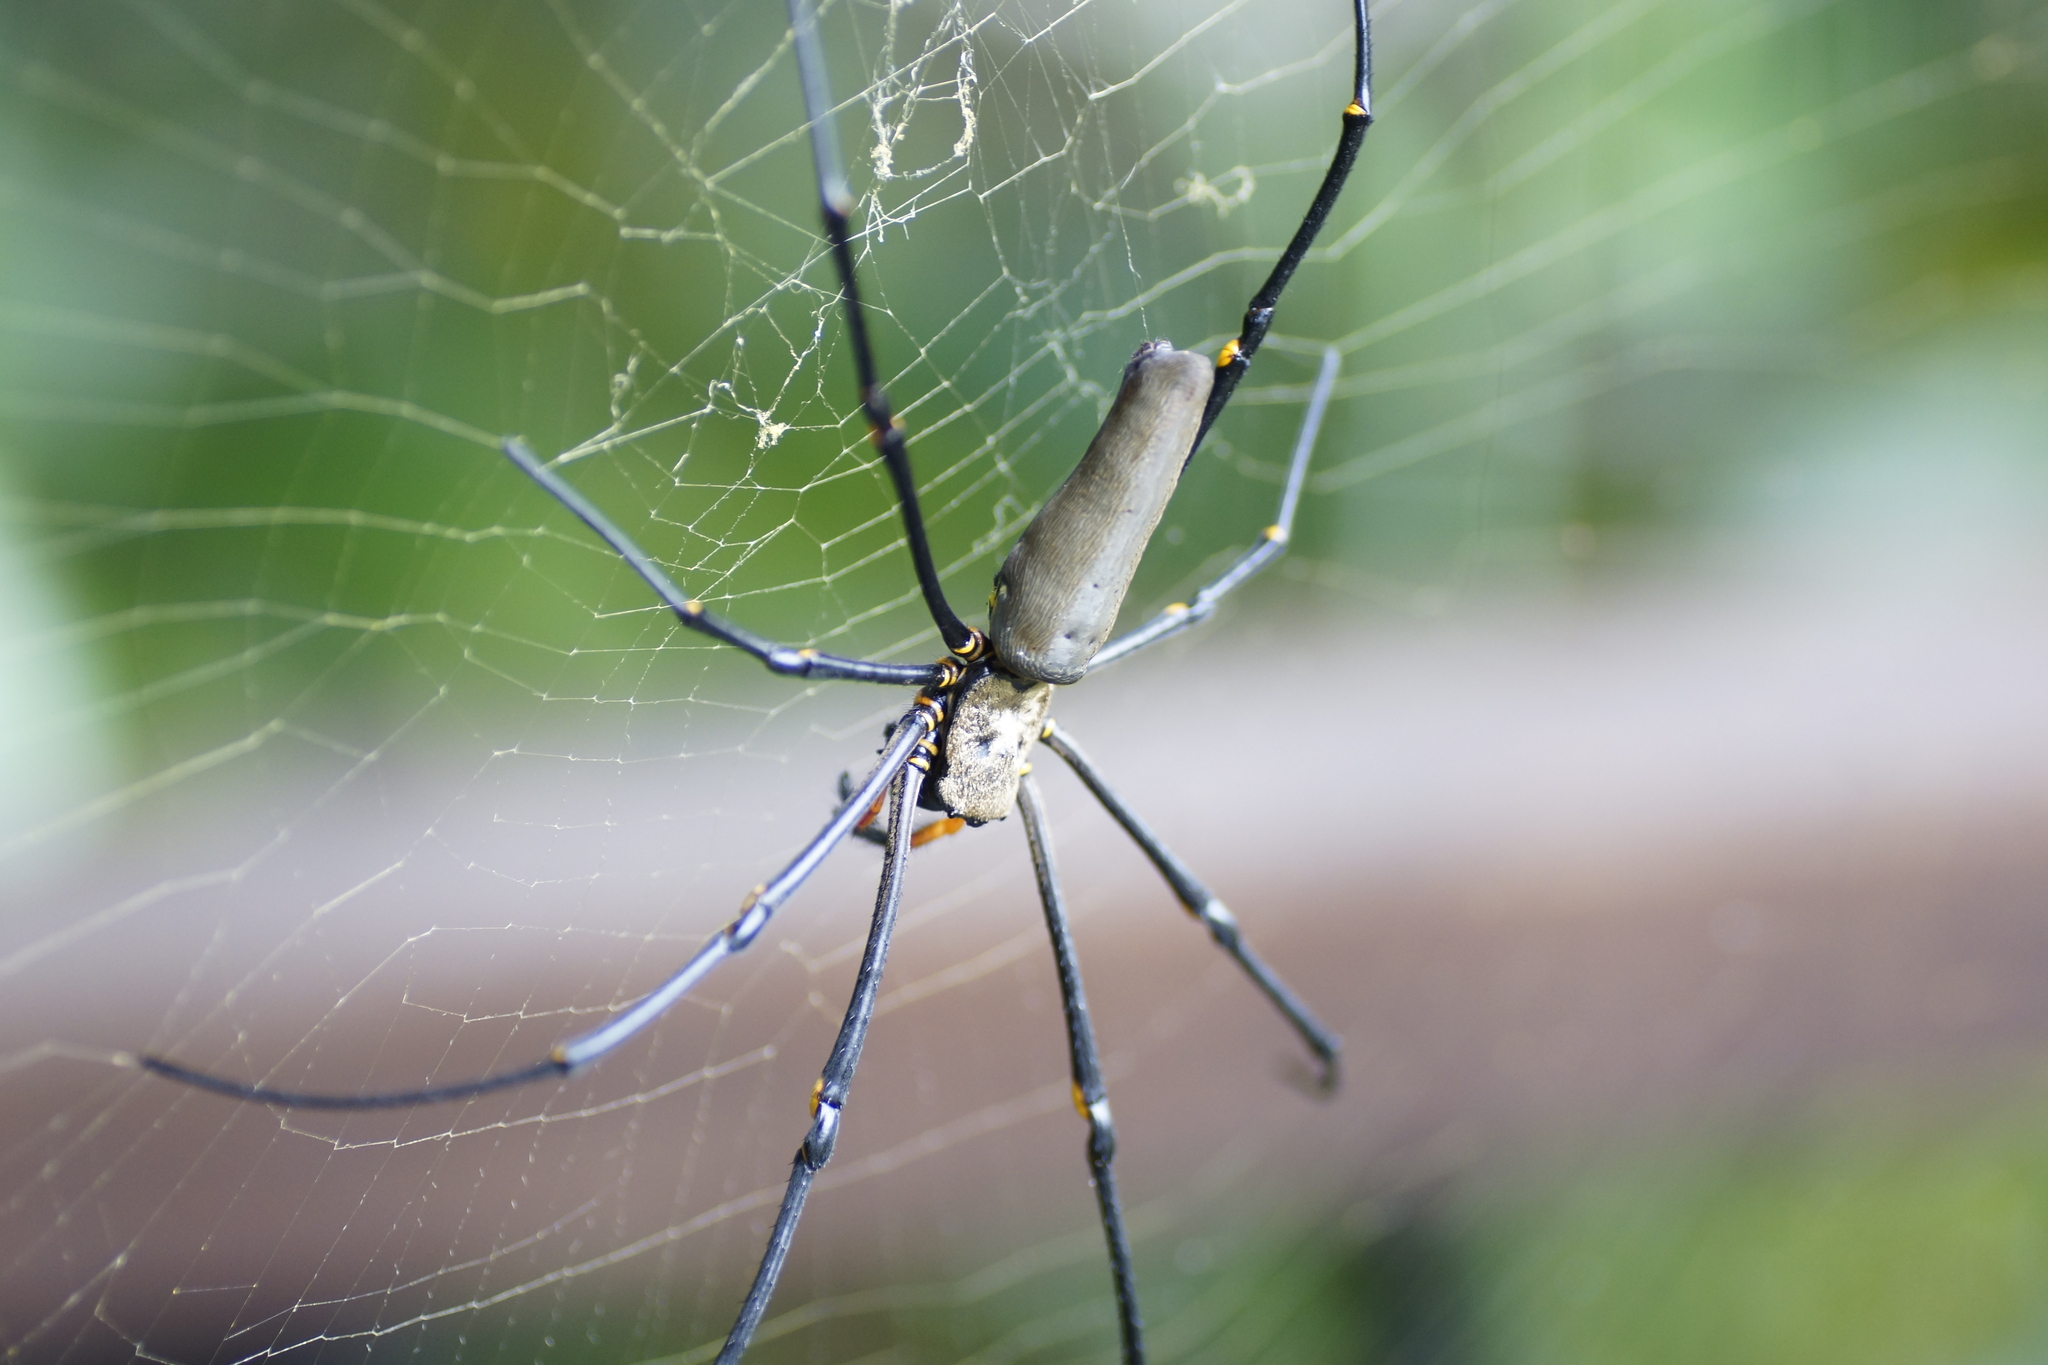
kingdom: Animalia
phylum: Arthropoda
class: Arachnida
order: Araneae
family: Araneidae
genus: Nephila
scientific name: Nephila pilipes
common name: Giant golden orb weaver
